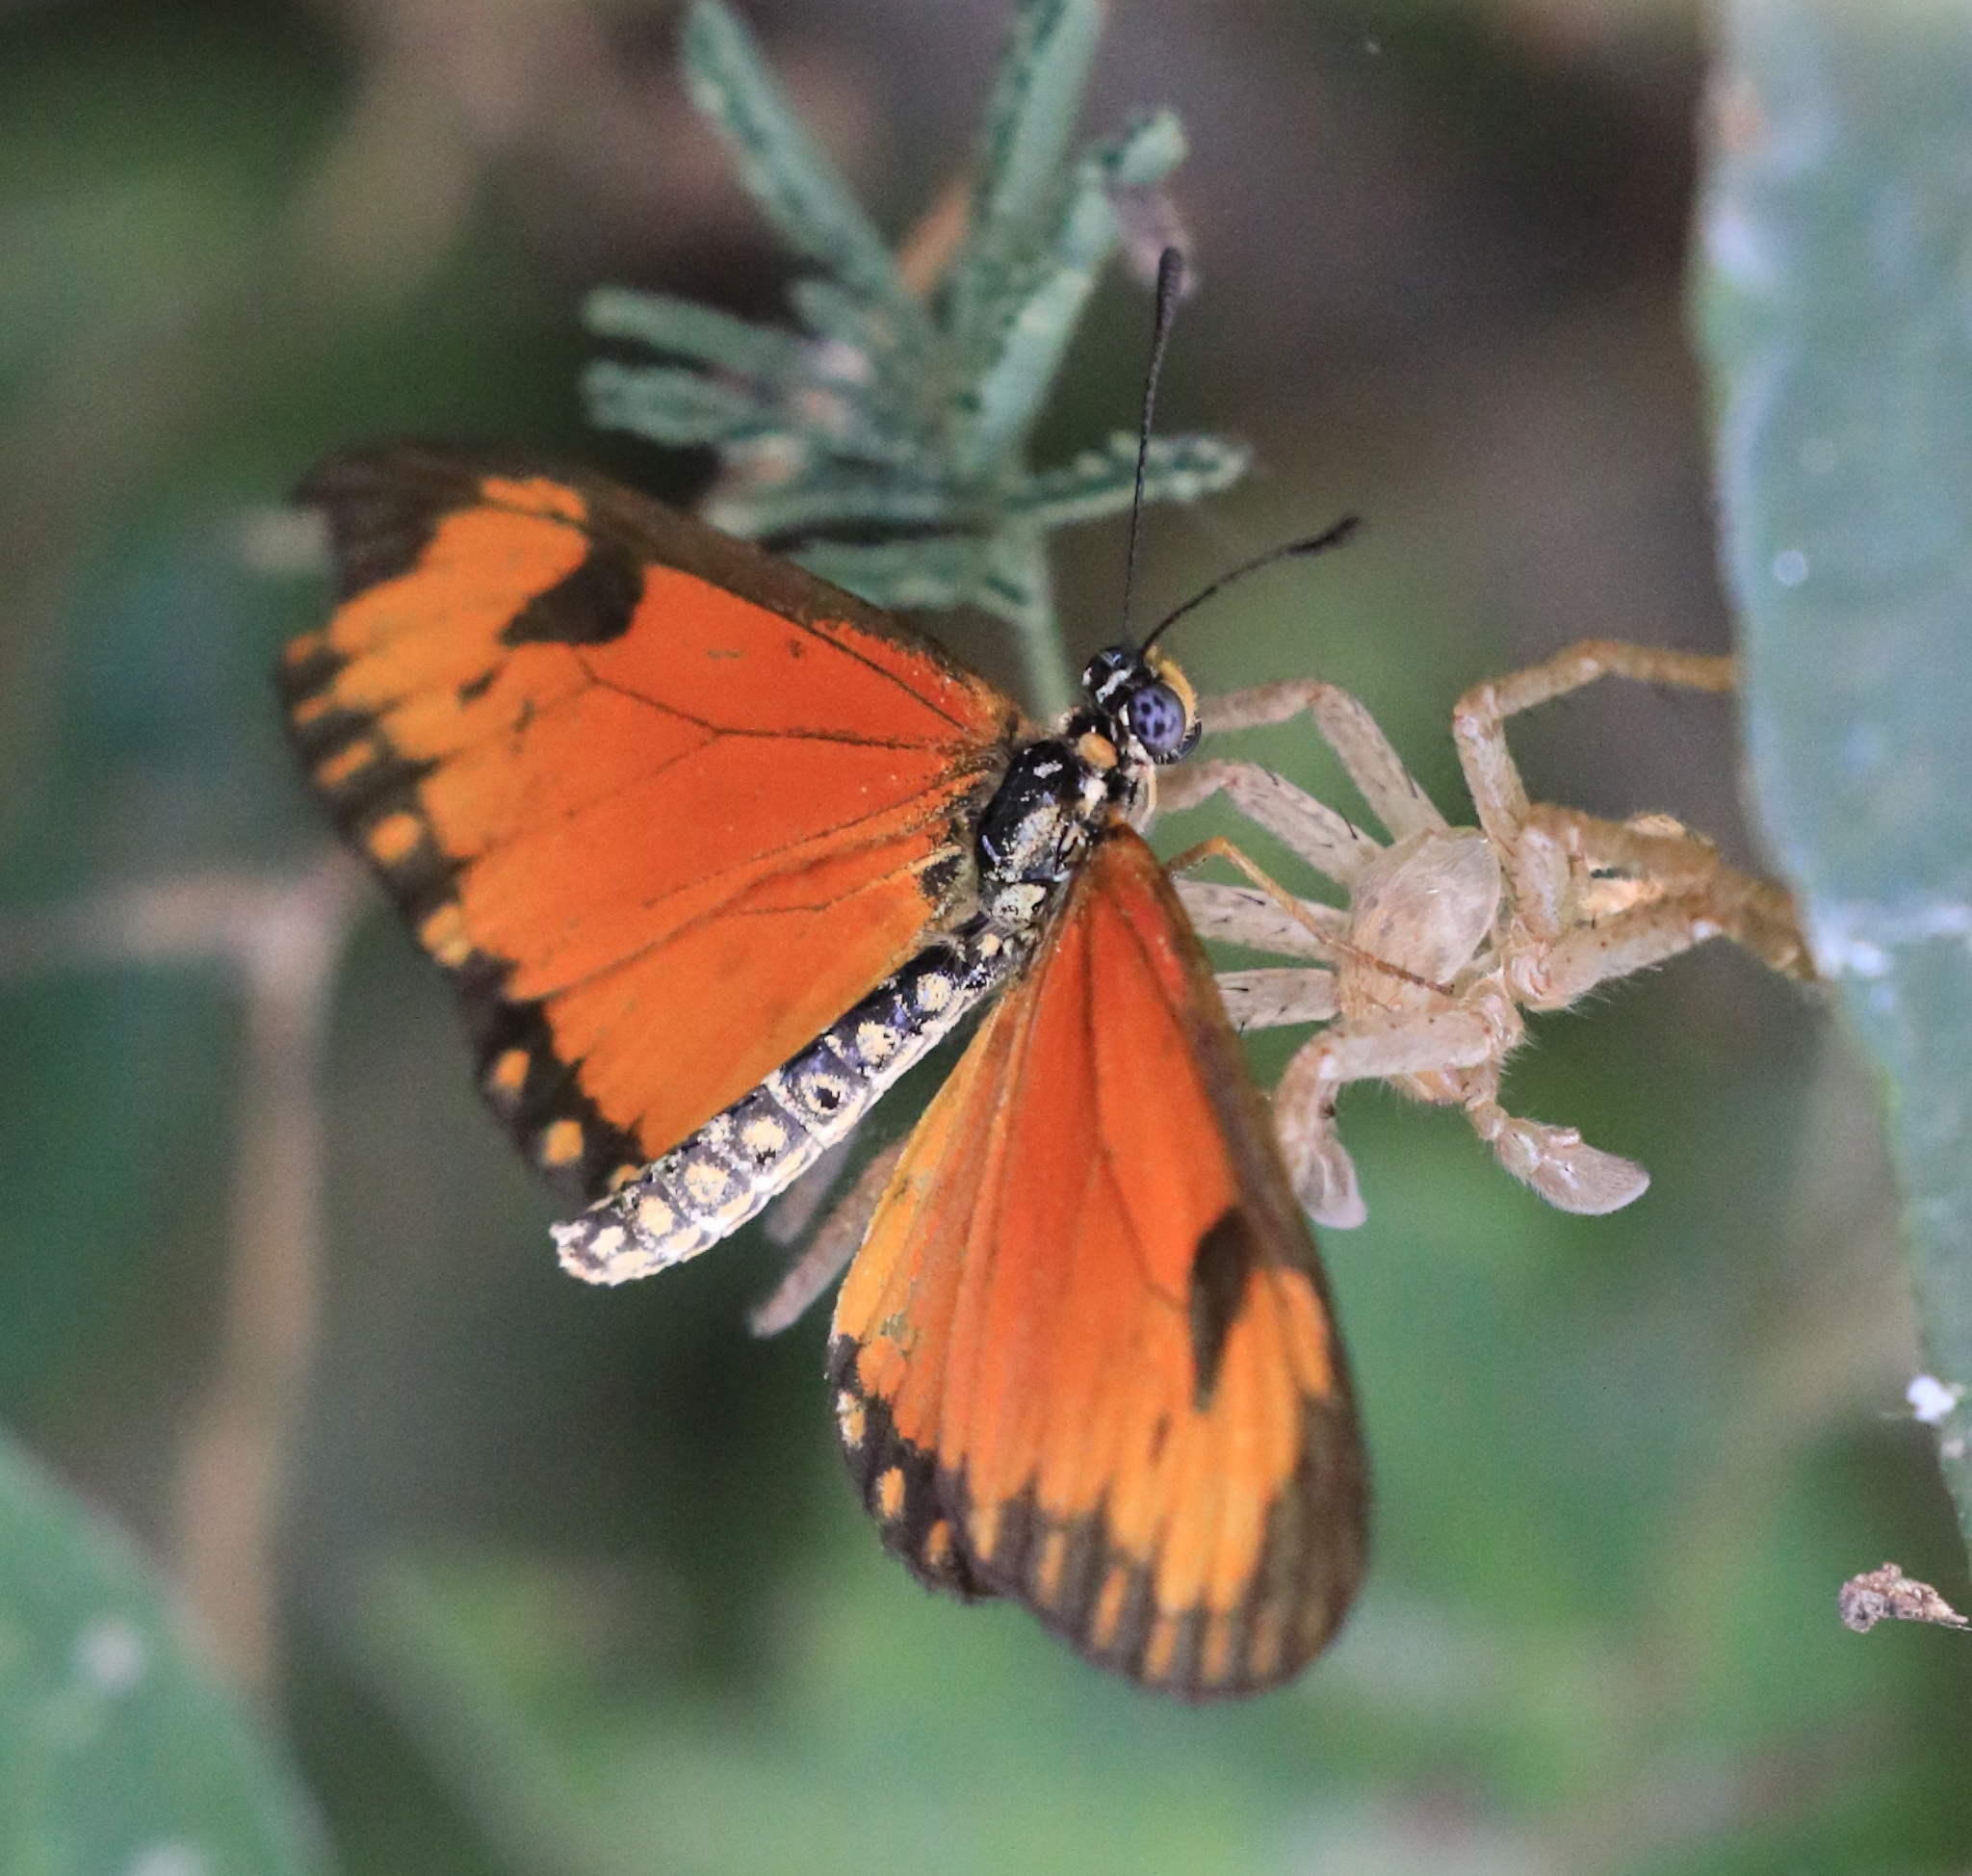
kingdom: Animalia
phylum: Arthropoda
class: Insecta
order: Lepidoptera
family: Nymphalidae
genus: Acraea
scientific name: Acraea Telchinia serena
